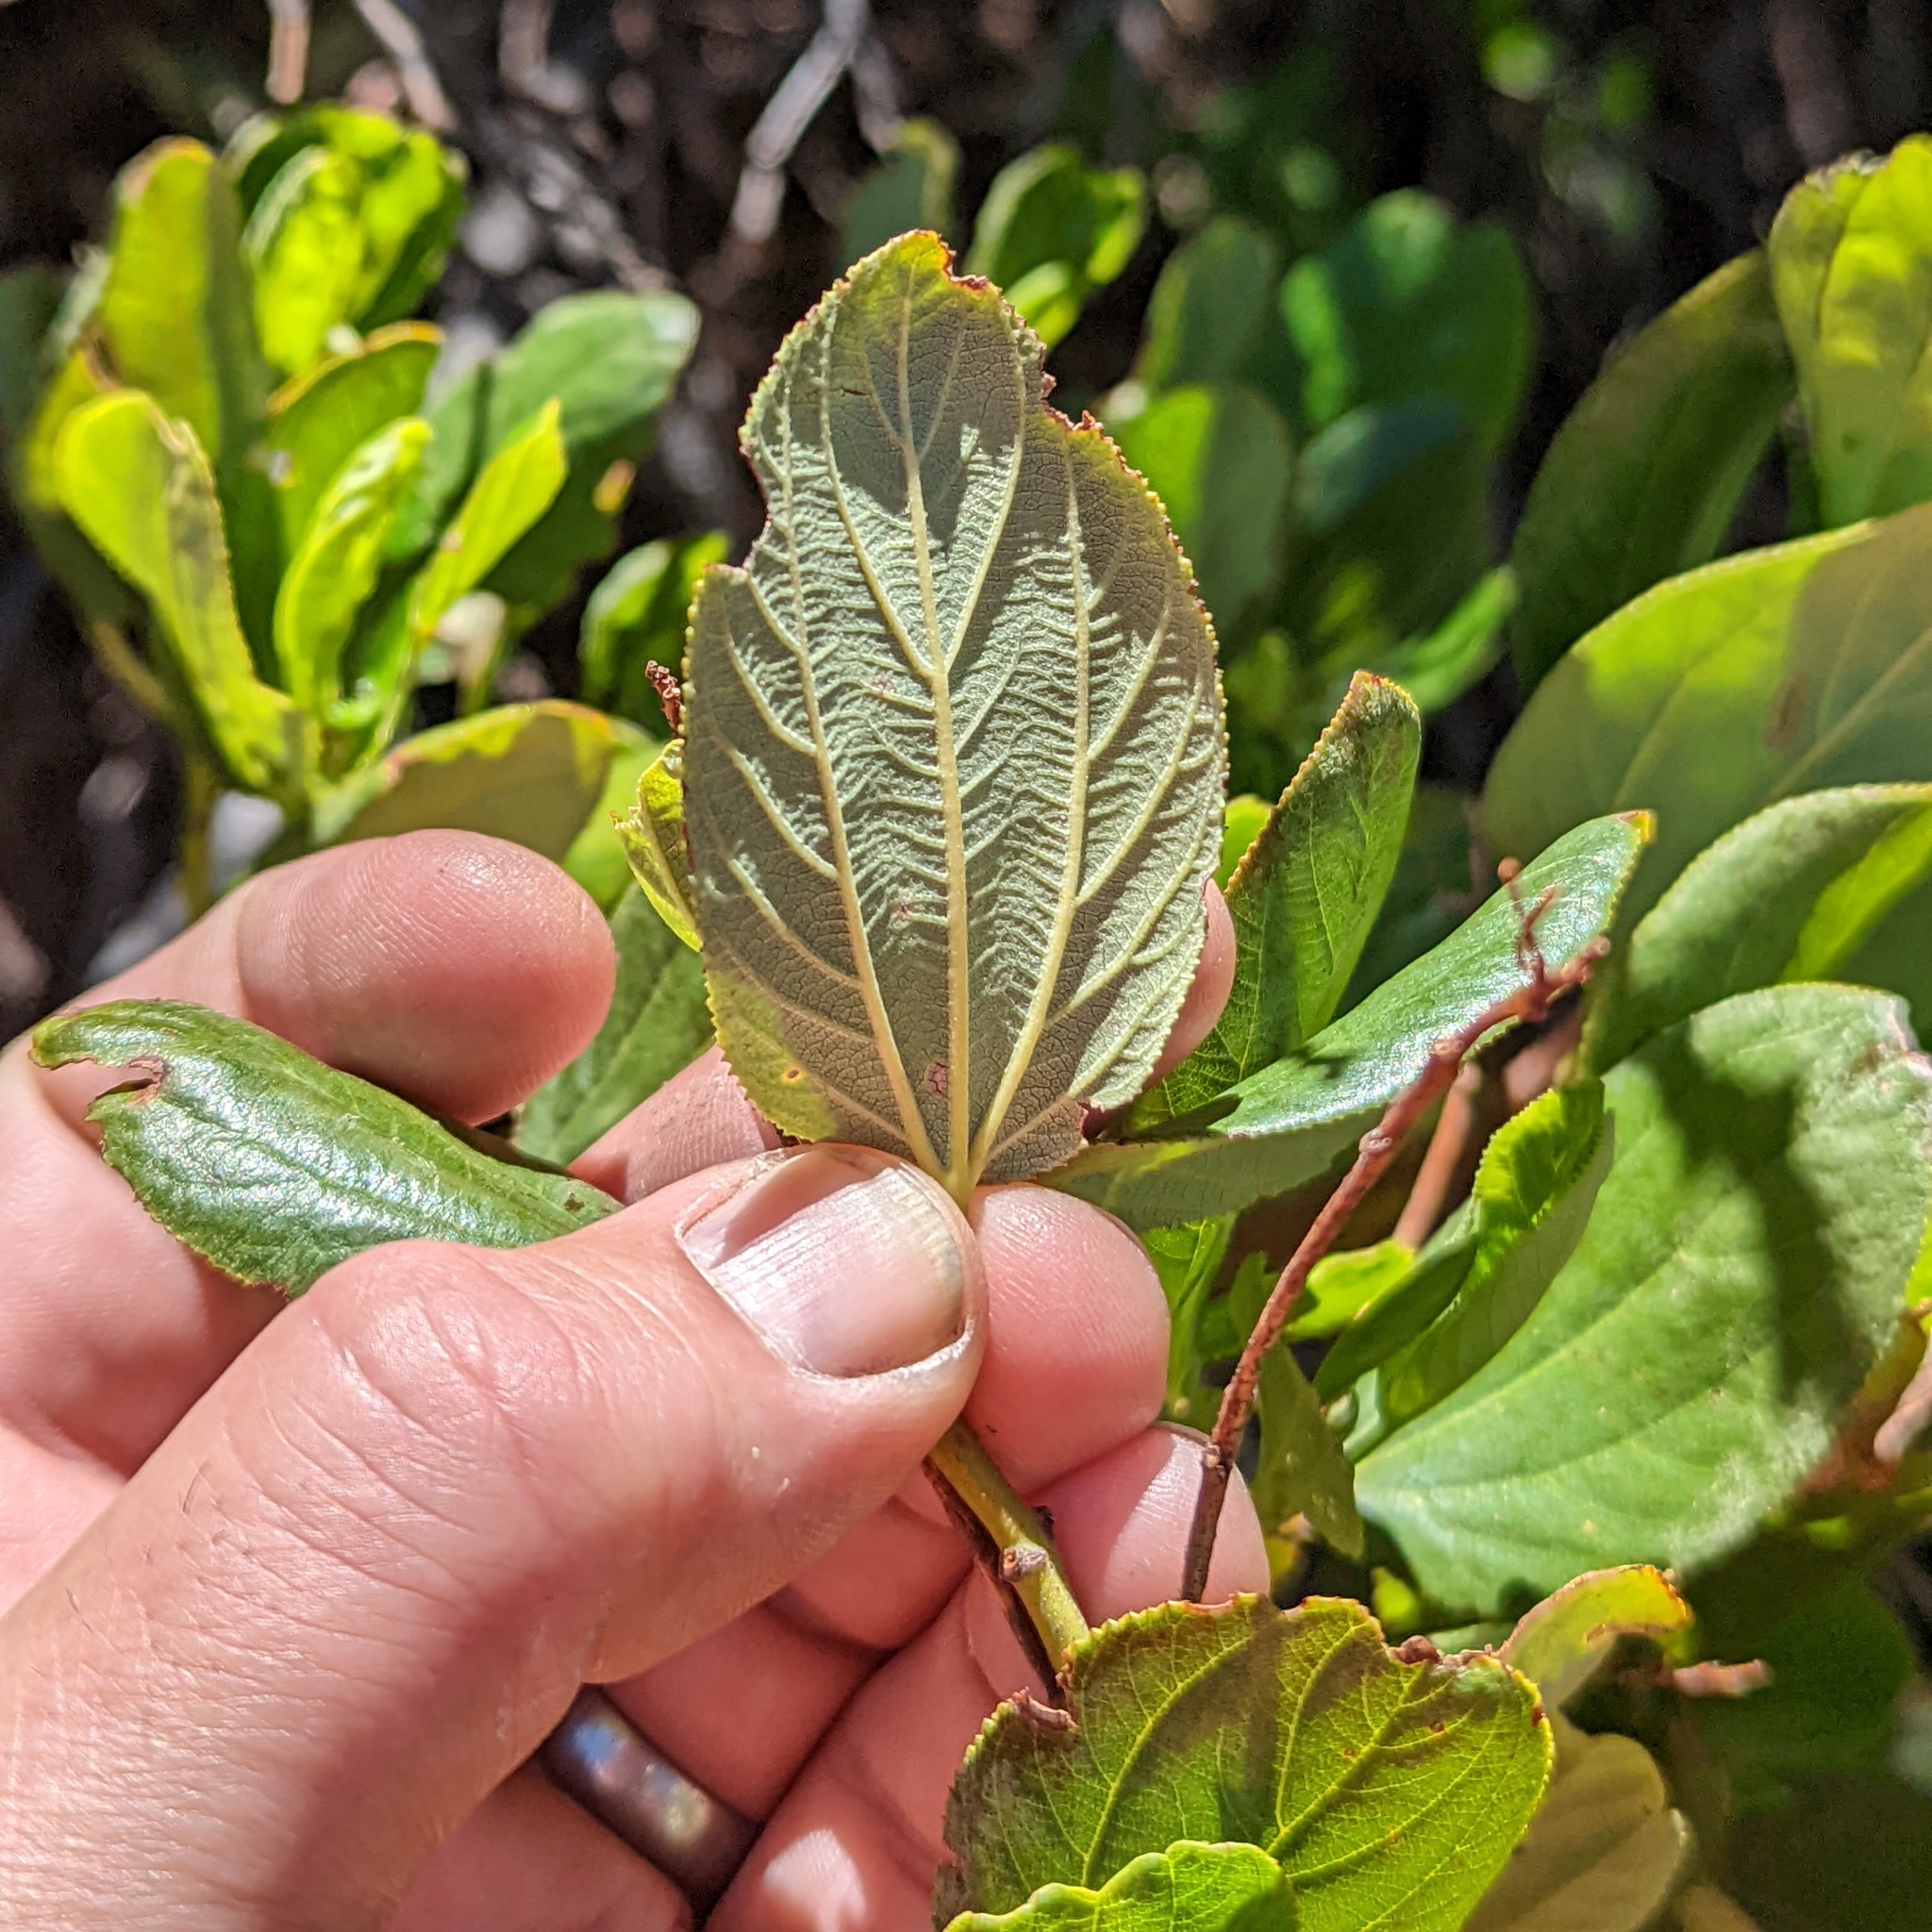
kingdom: Plantae
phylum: Tracheophyta
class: Magnoliopsida
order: Rosales
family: Rhamnaceae
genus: Ceanothus
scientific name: Ceanothus velutinus
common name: Snowbrush
